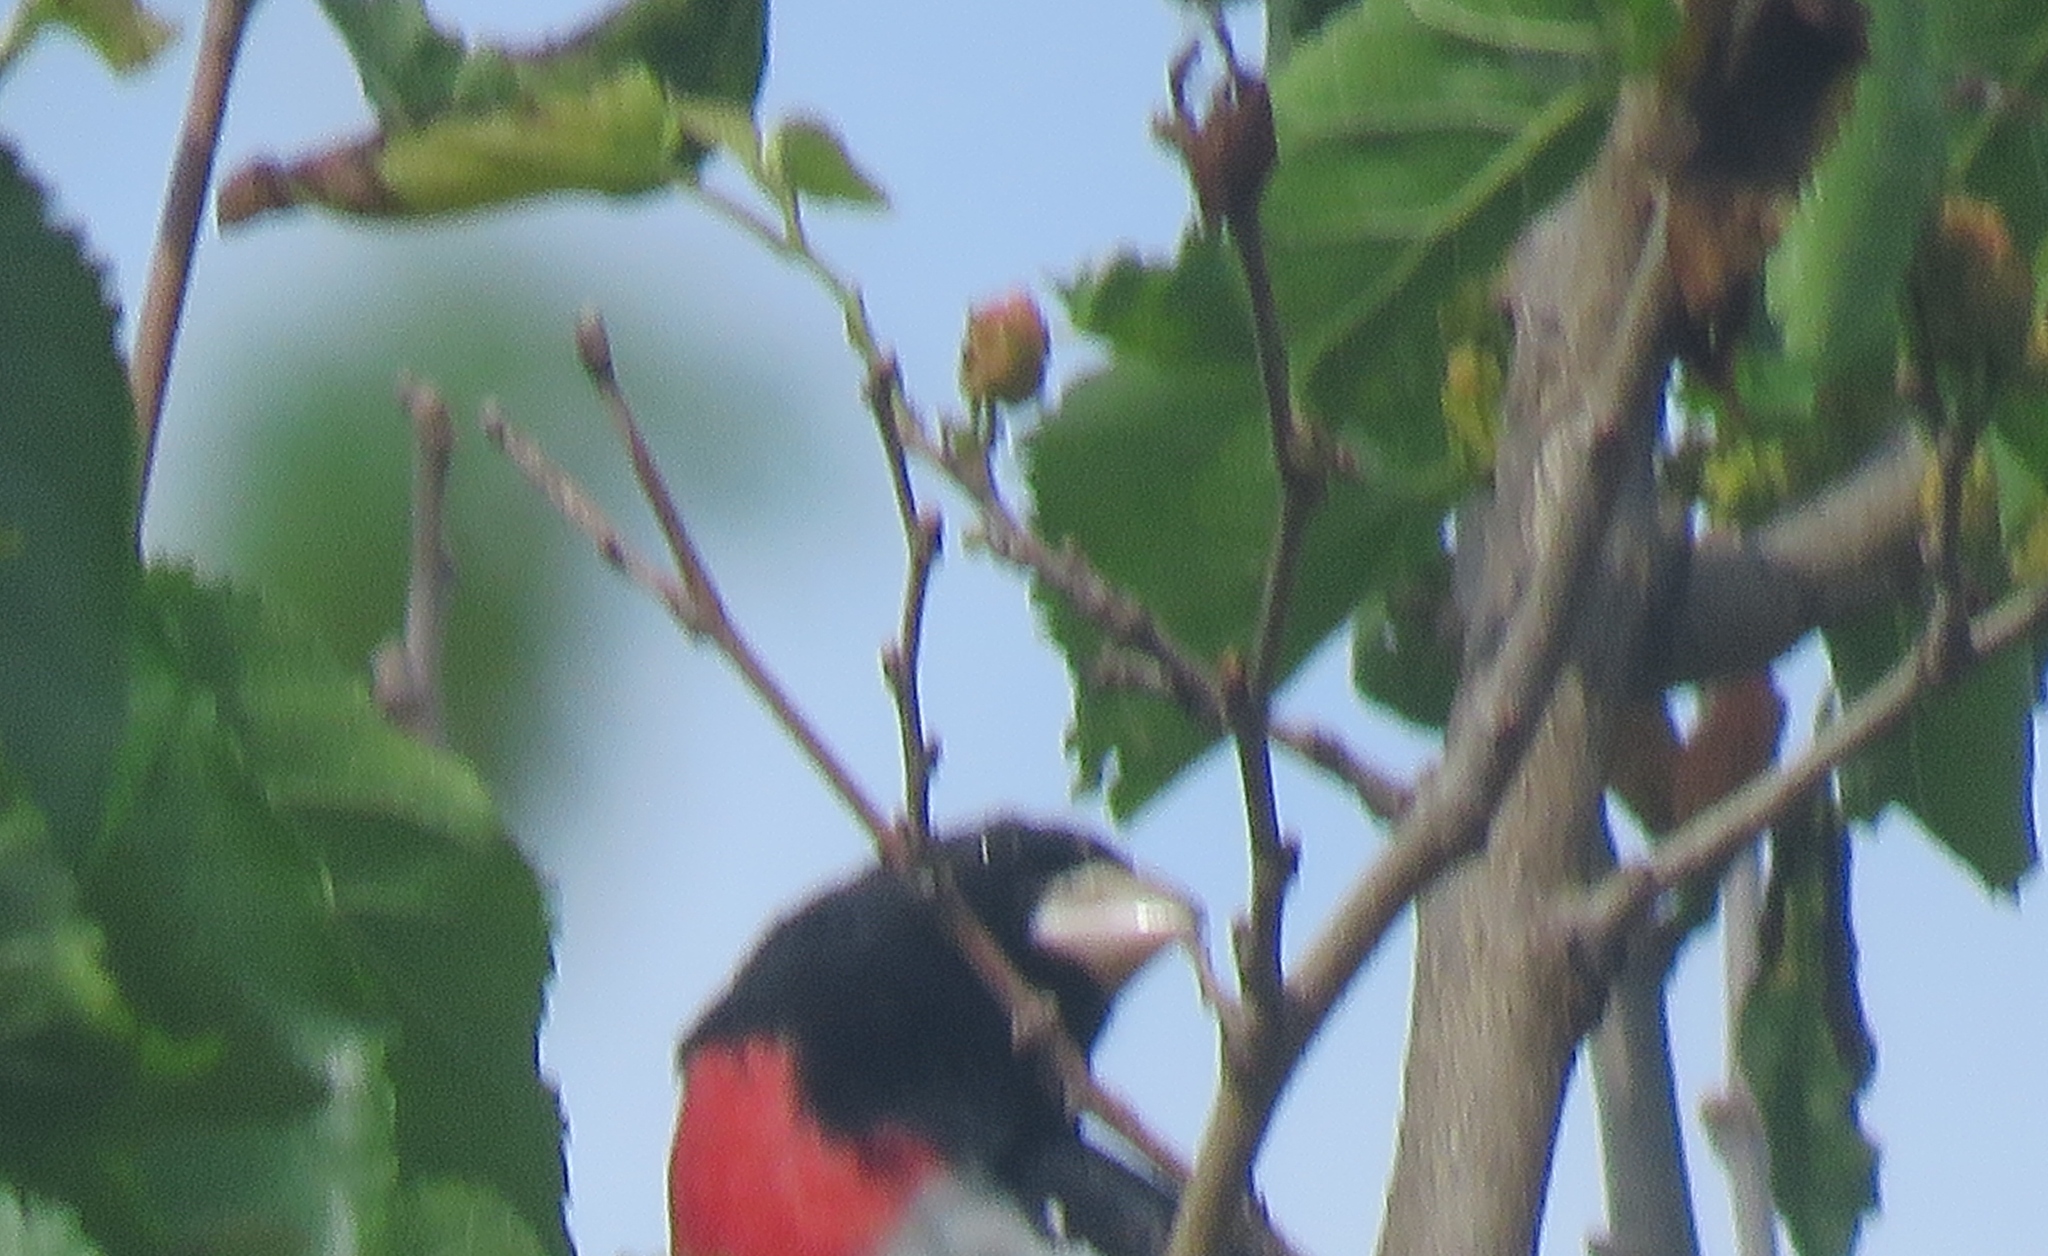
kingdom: Animalia
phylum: Chordata
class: Aves
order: Passeriformes
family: Cardinalidae
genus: Pheucticus
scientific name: Pheucticus ludovicianus
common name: Rose-breasted grosbeak
